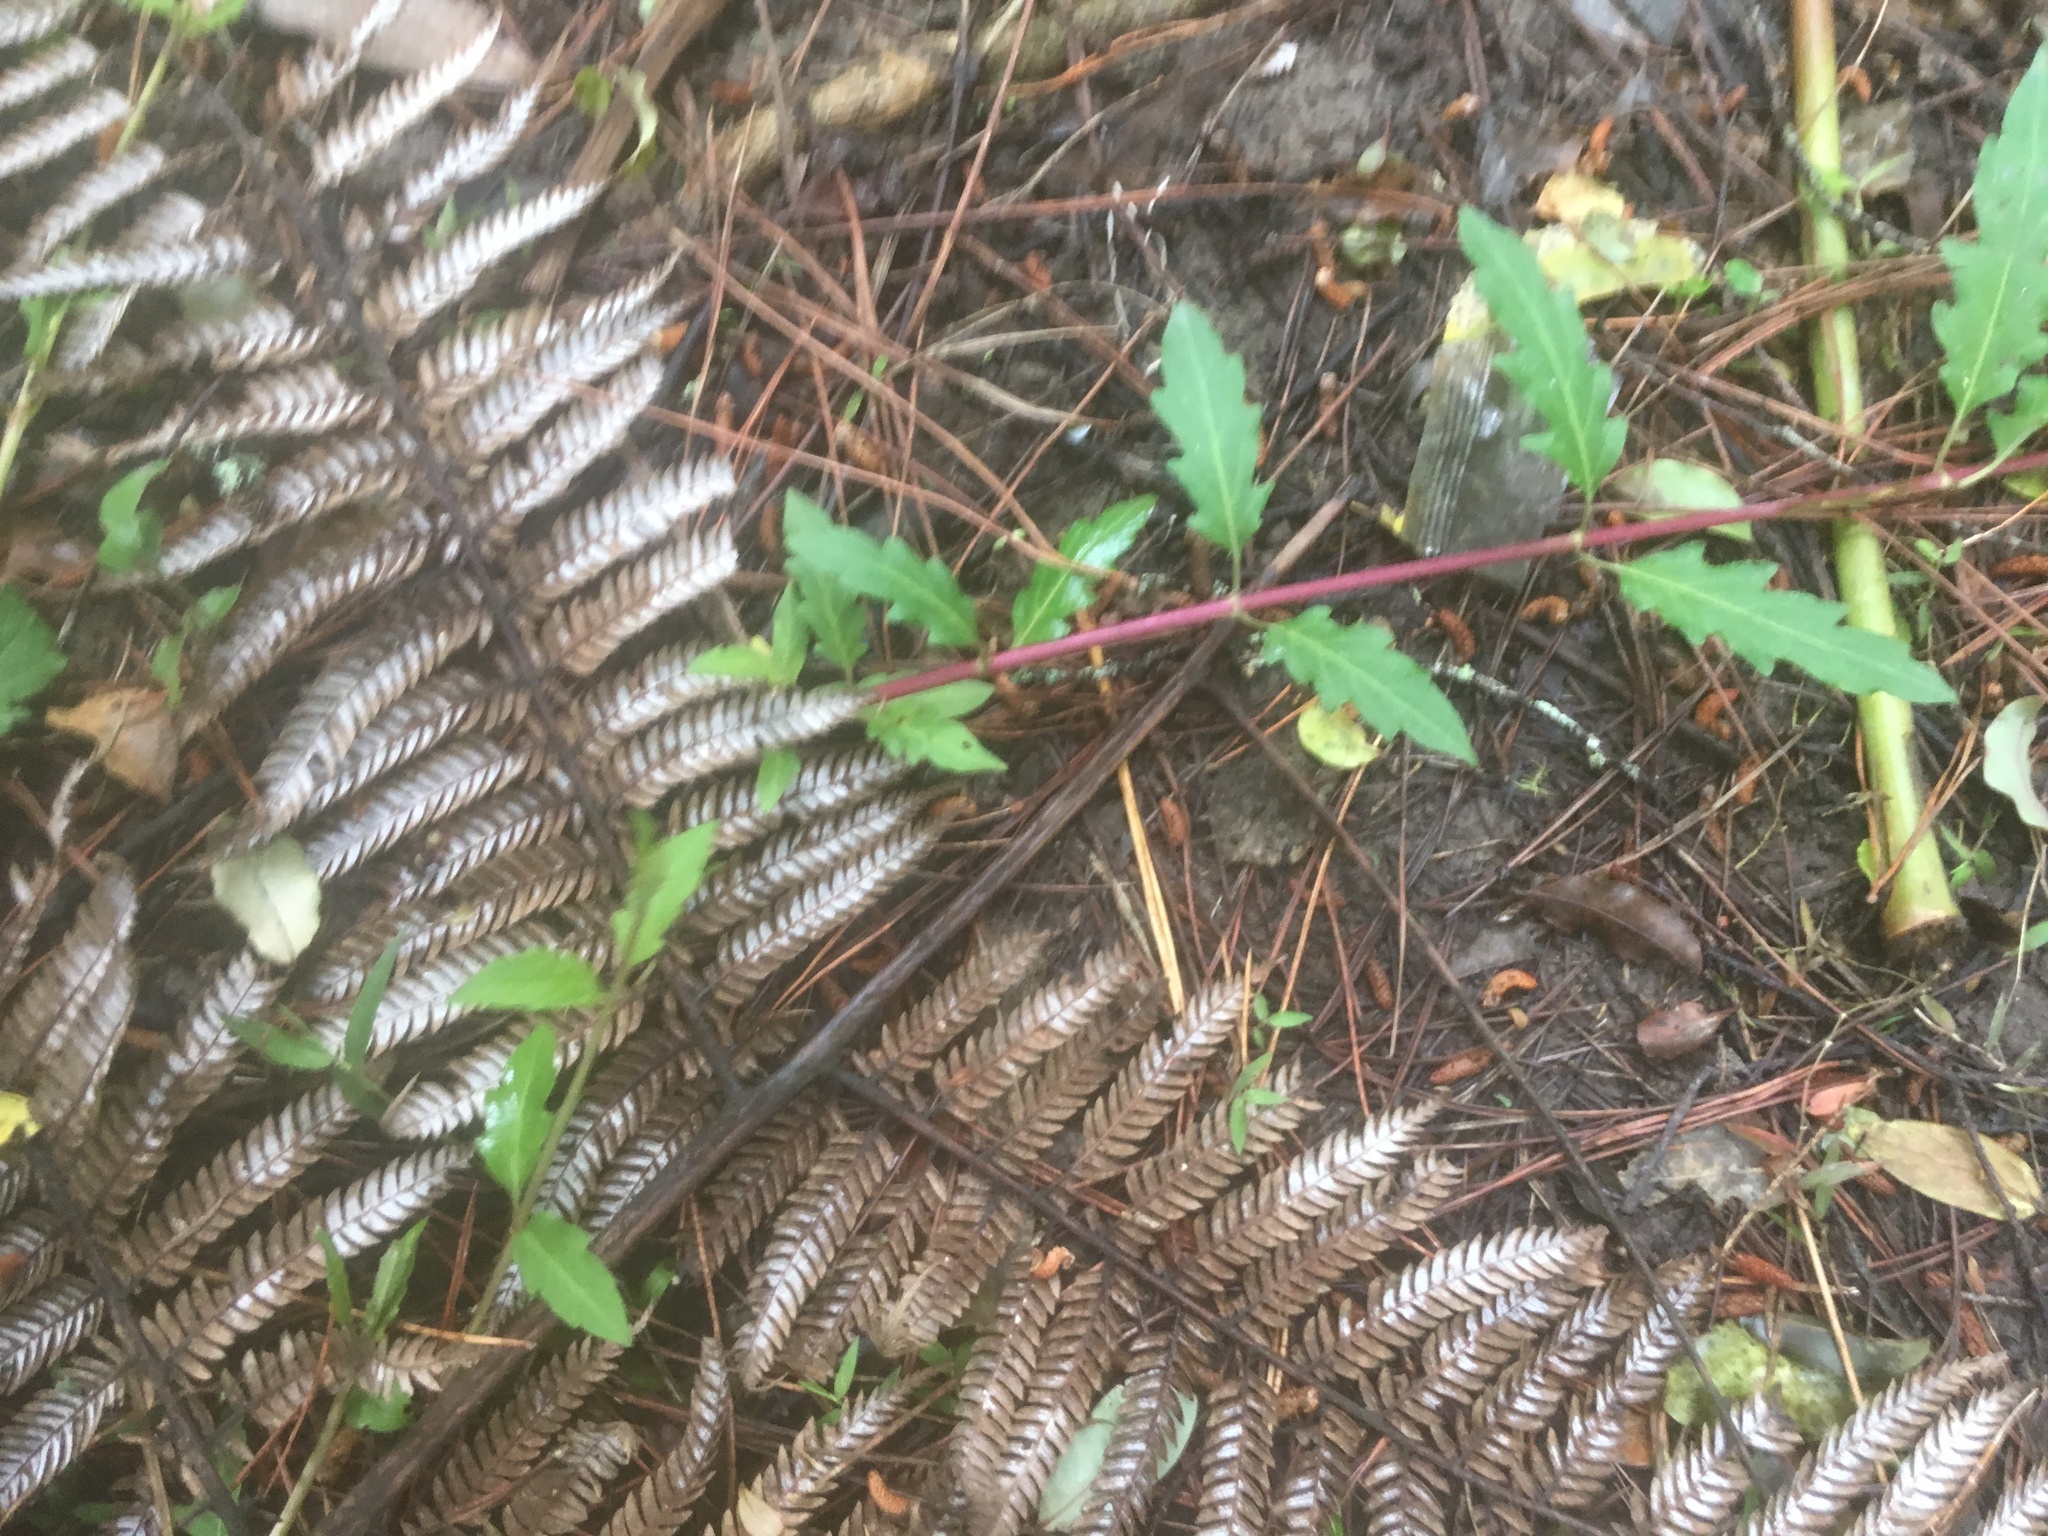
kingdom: Plantae
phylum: Tracheophyta
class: Magnoliopsida
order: Dipsacales
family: Caprifoliaceae
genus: Lonicera
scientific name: Lonicera japonica
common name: Japanese honeysuckle
